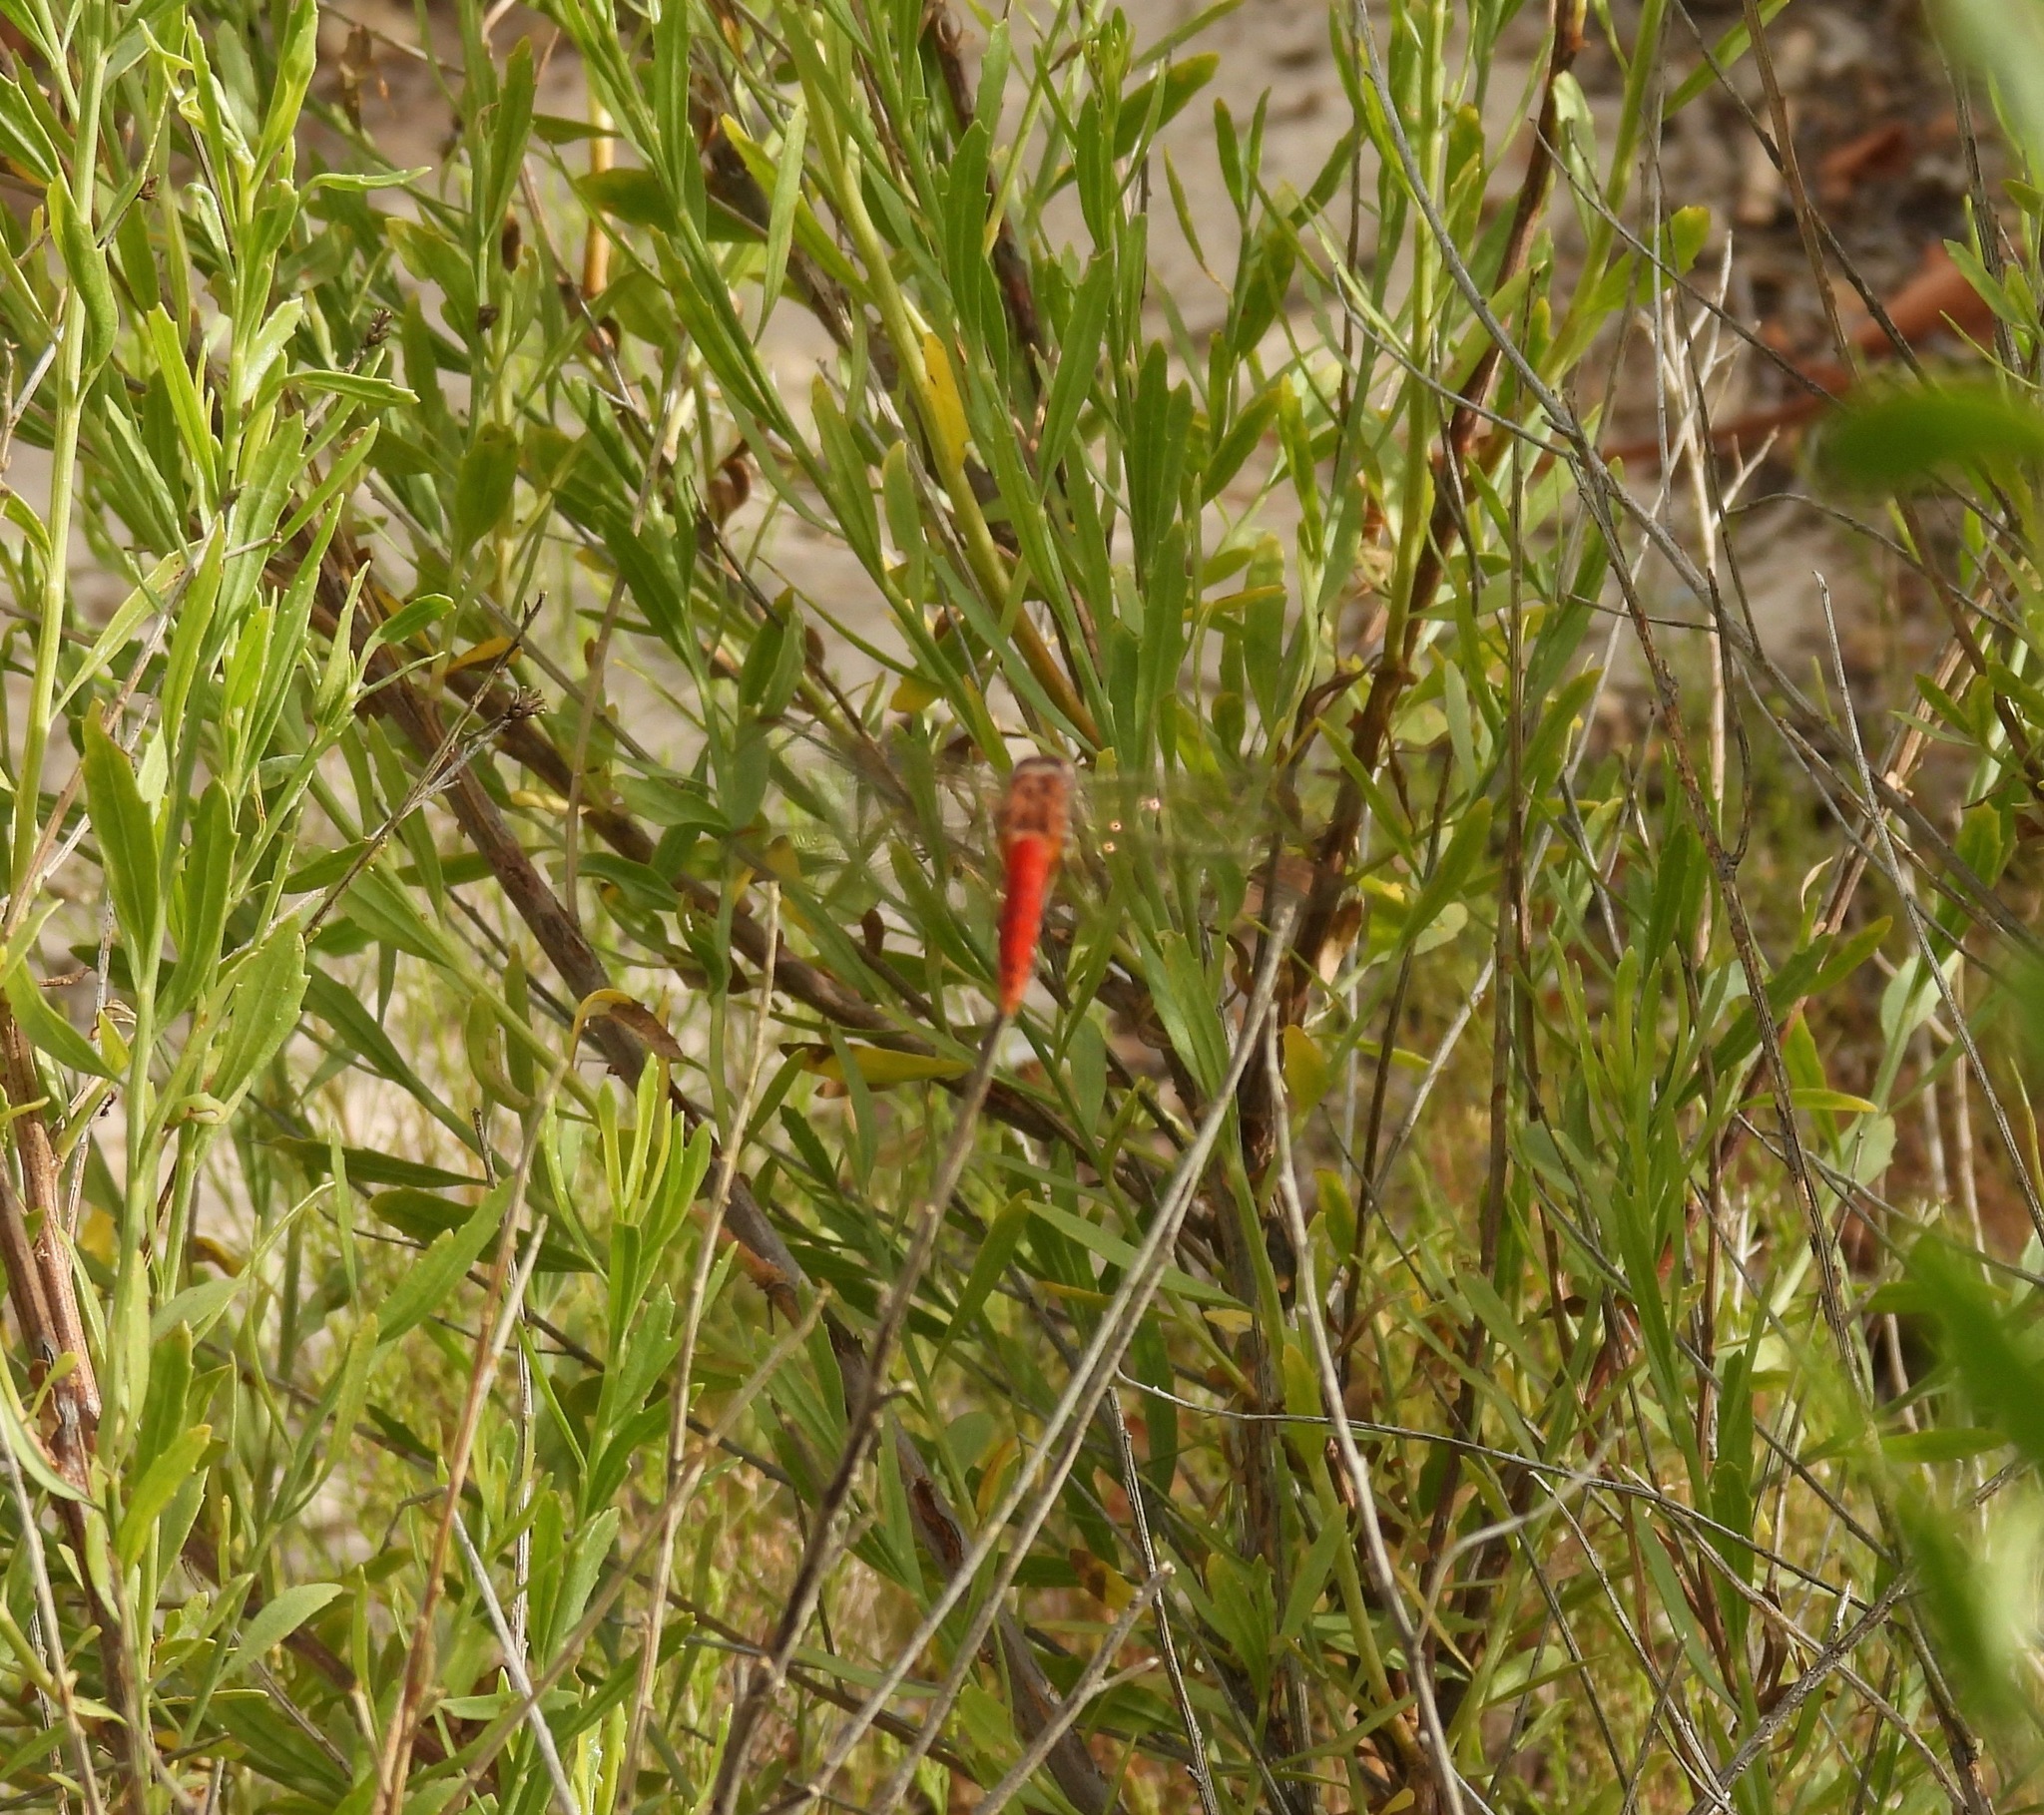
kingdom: Animalia
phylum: Arthropoda
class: Insecta
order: Odonata
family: Libellulidae
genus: Brachymesia
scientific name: Brachymesia furcata
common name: Red-taled pennant
